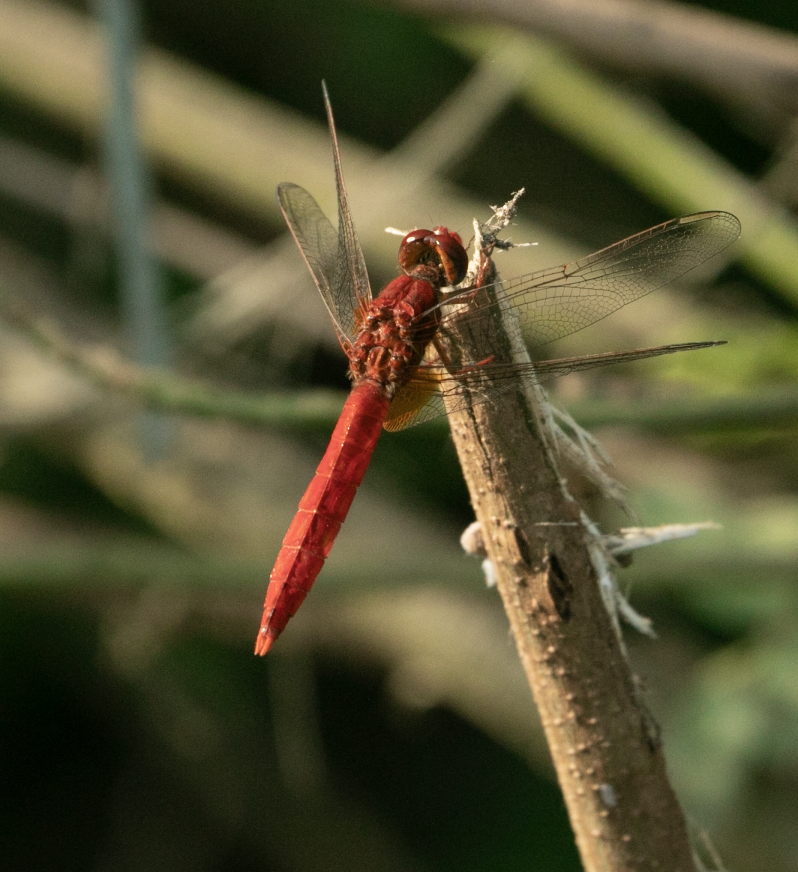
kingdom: Animalia
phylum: Arthropoda
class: Insecta
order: Odonata
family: Libellulidae
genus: Crocothemis
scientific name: Crocothemis erythraea
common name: Scarlet dragonfly
